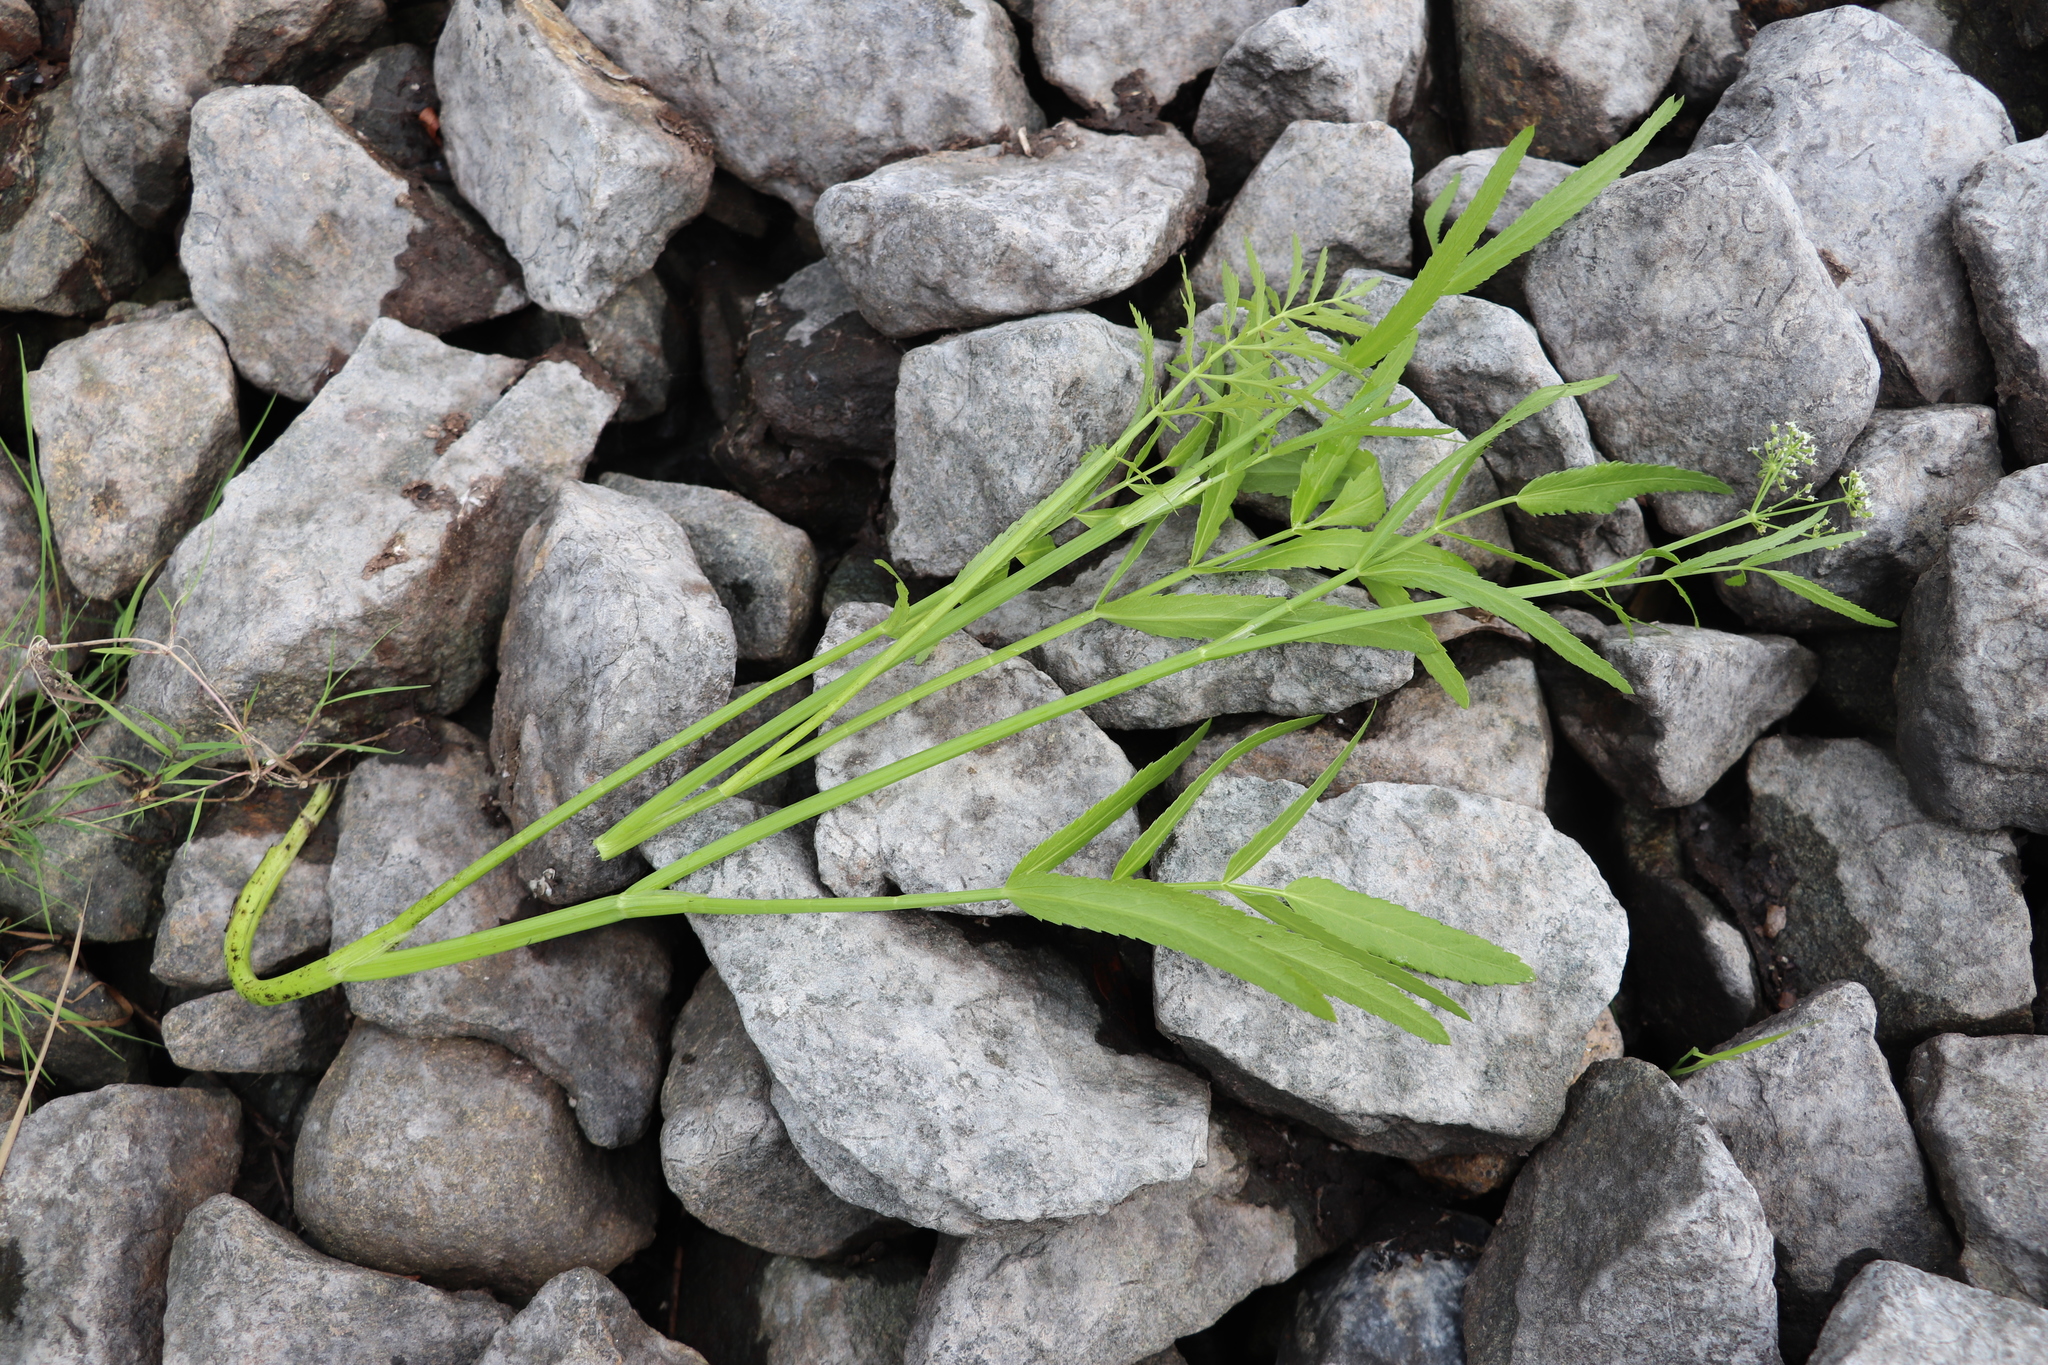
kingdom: Plantae
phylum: Tracheophyta
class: Magnoliopsida
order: Apiales
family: Apiaceae
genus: Cicuta
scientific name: Cicuta virosa
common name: Cowbane
